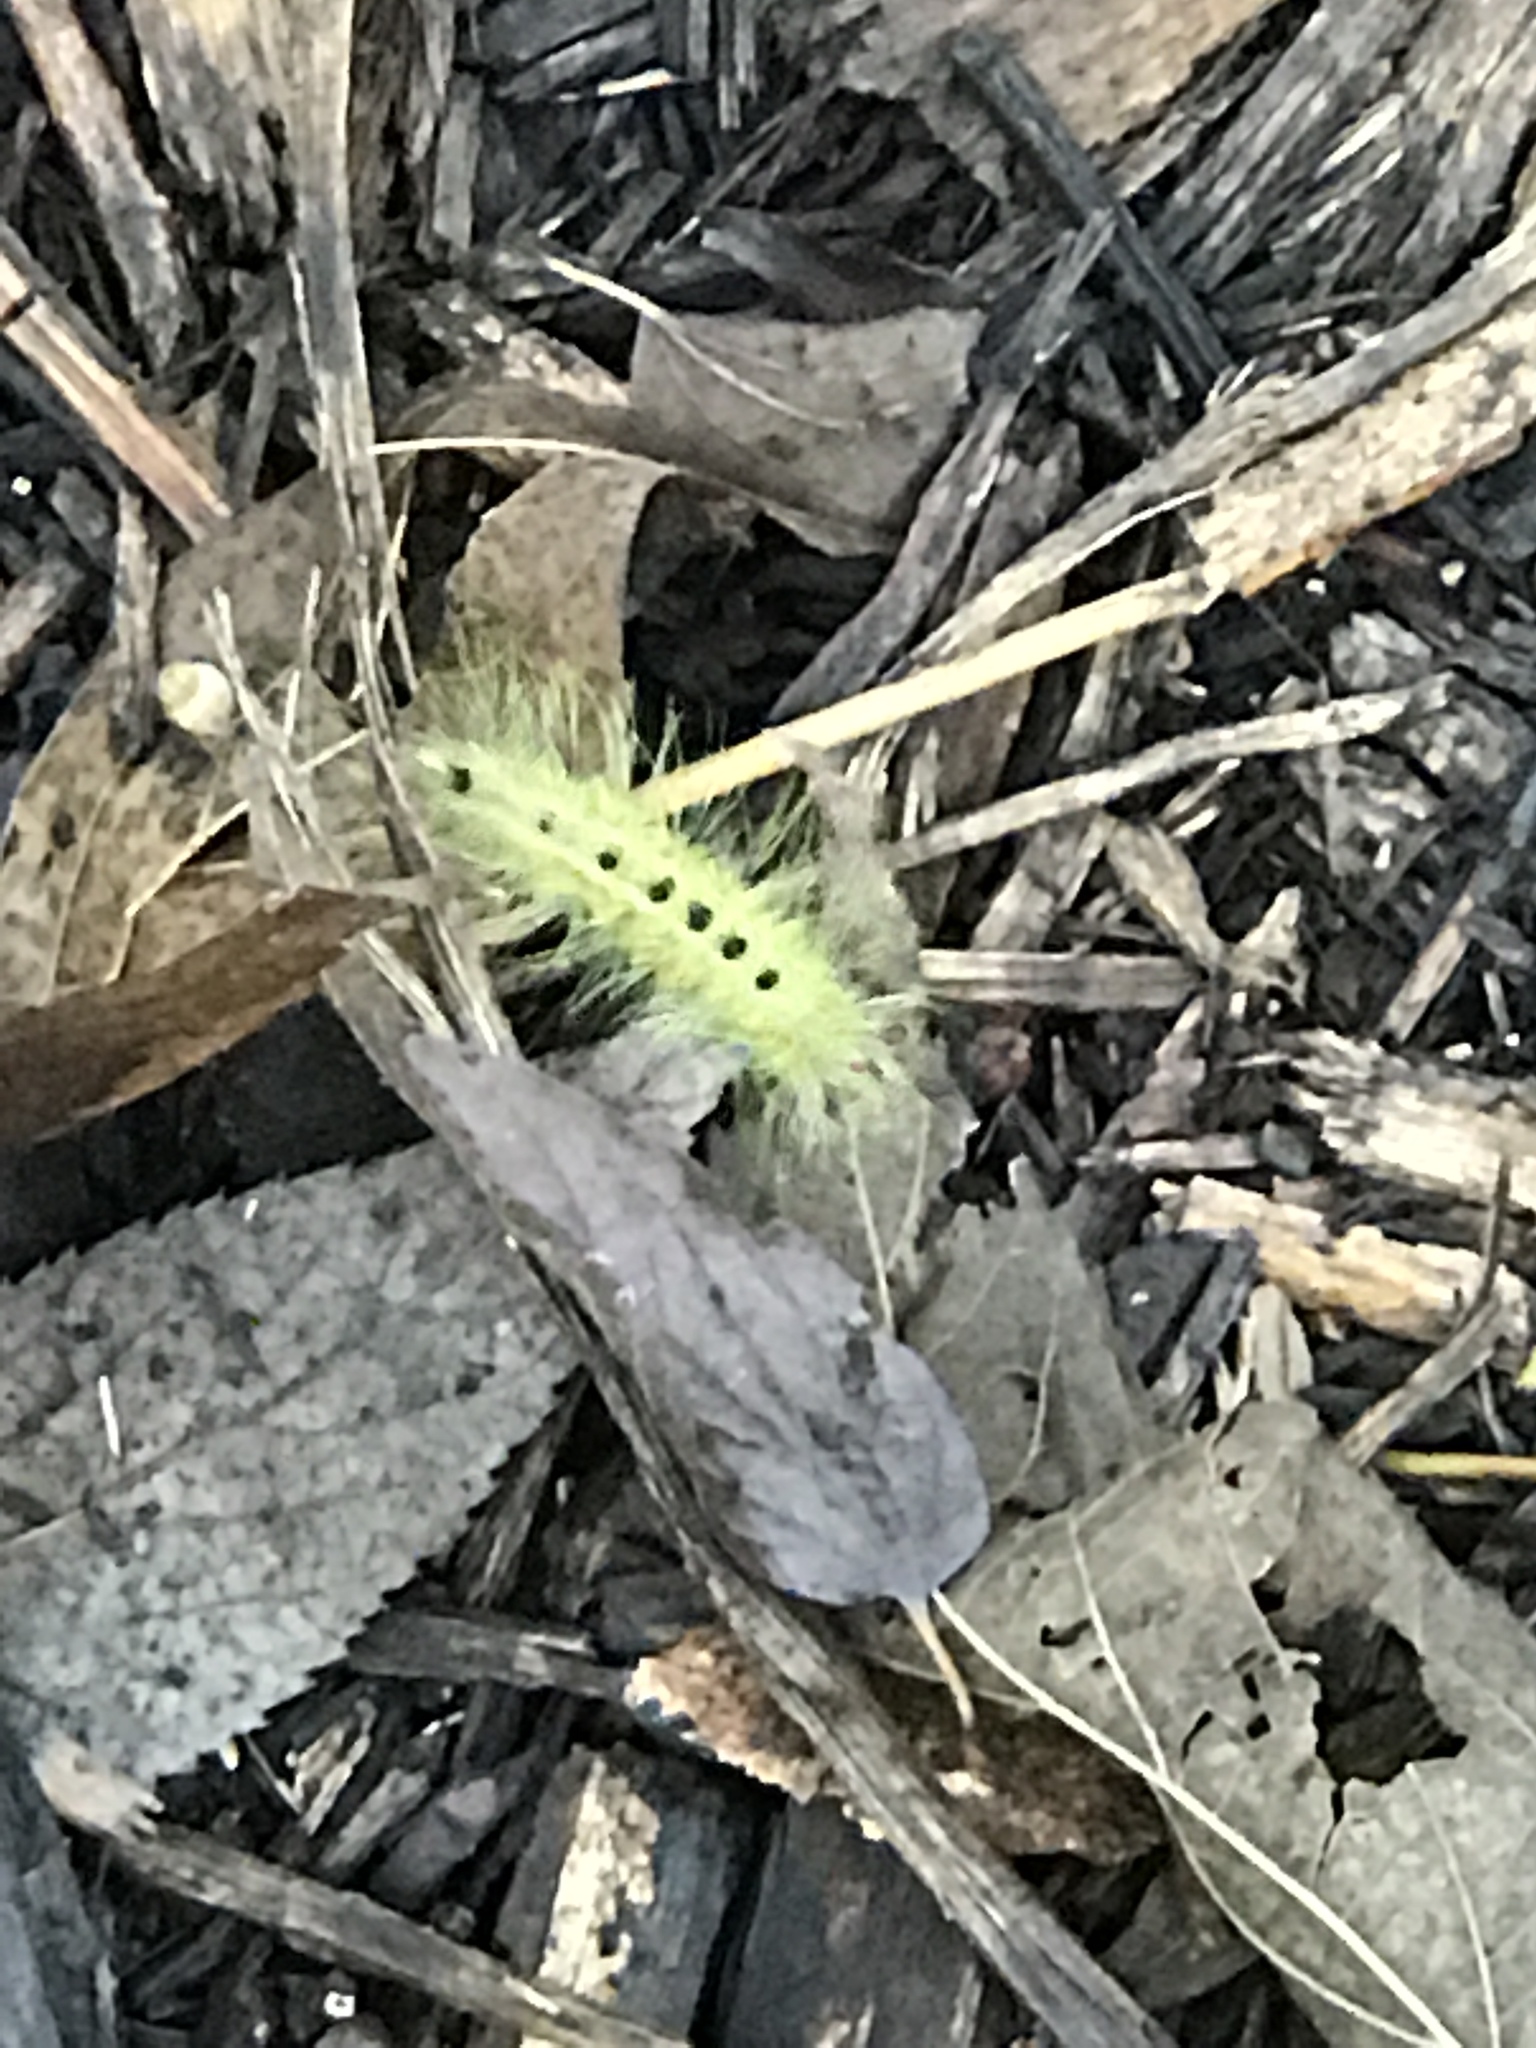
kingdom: Animalia
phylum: Arthropoda
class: Insecta
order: Lepidoptera
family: Noctuidae
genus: Acronicta
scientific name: Acronicta rubricoma
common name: Hackberry dagger
